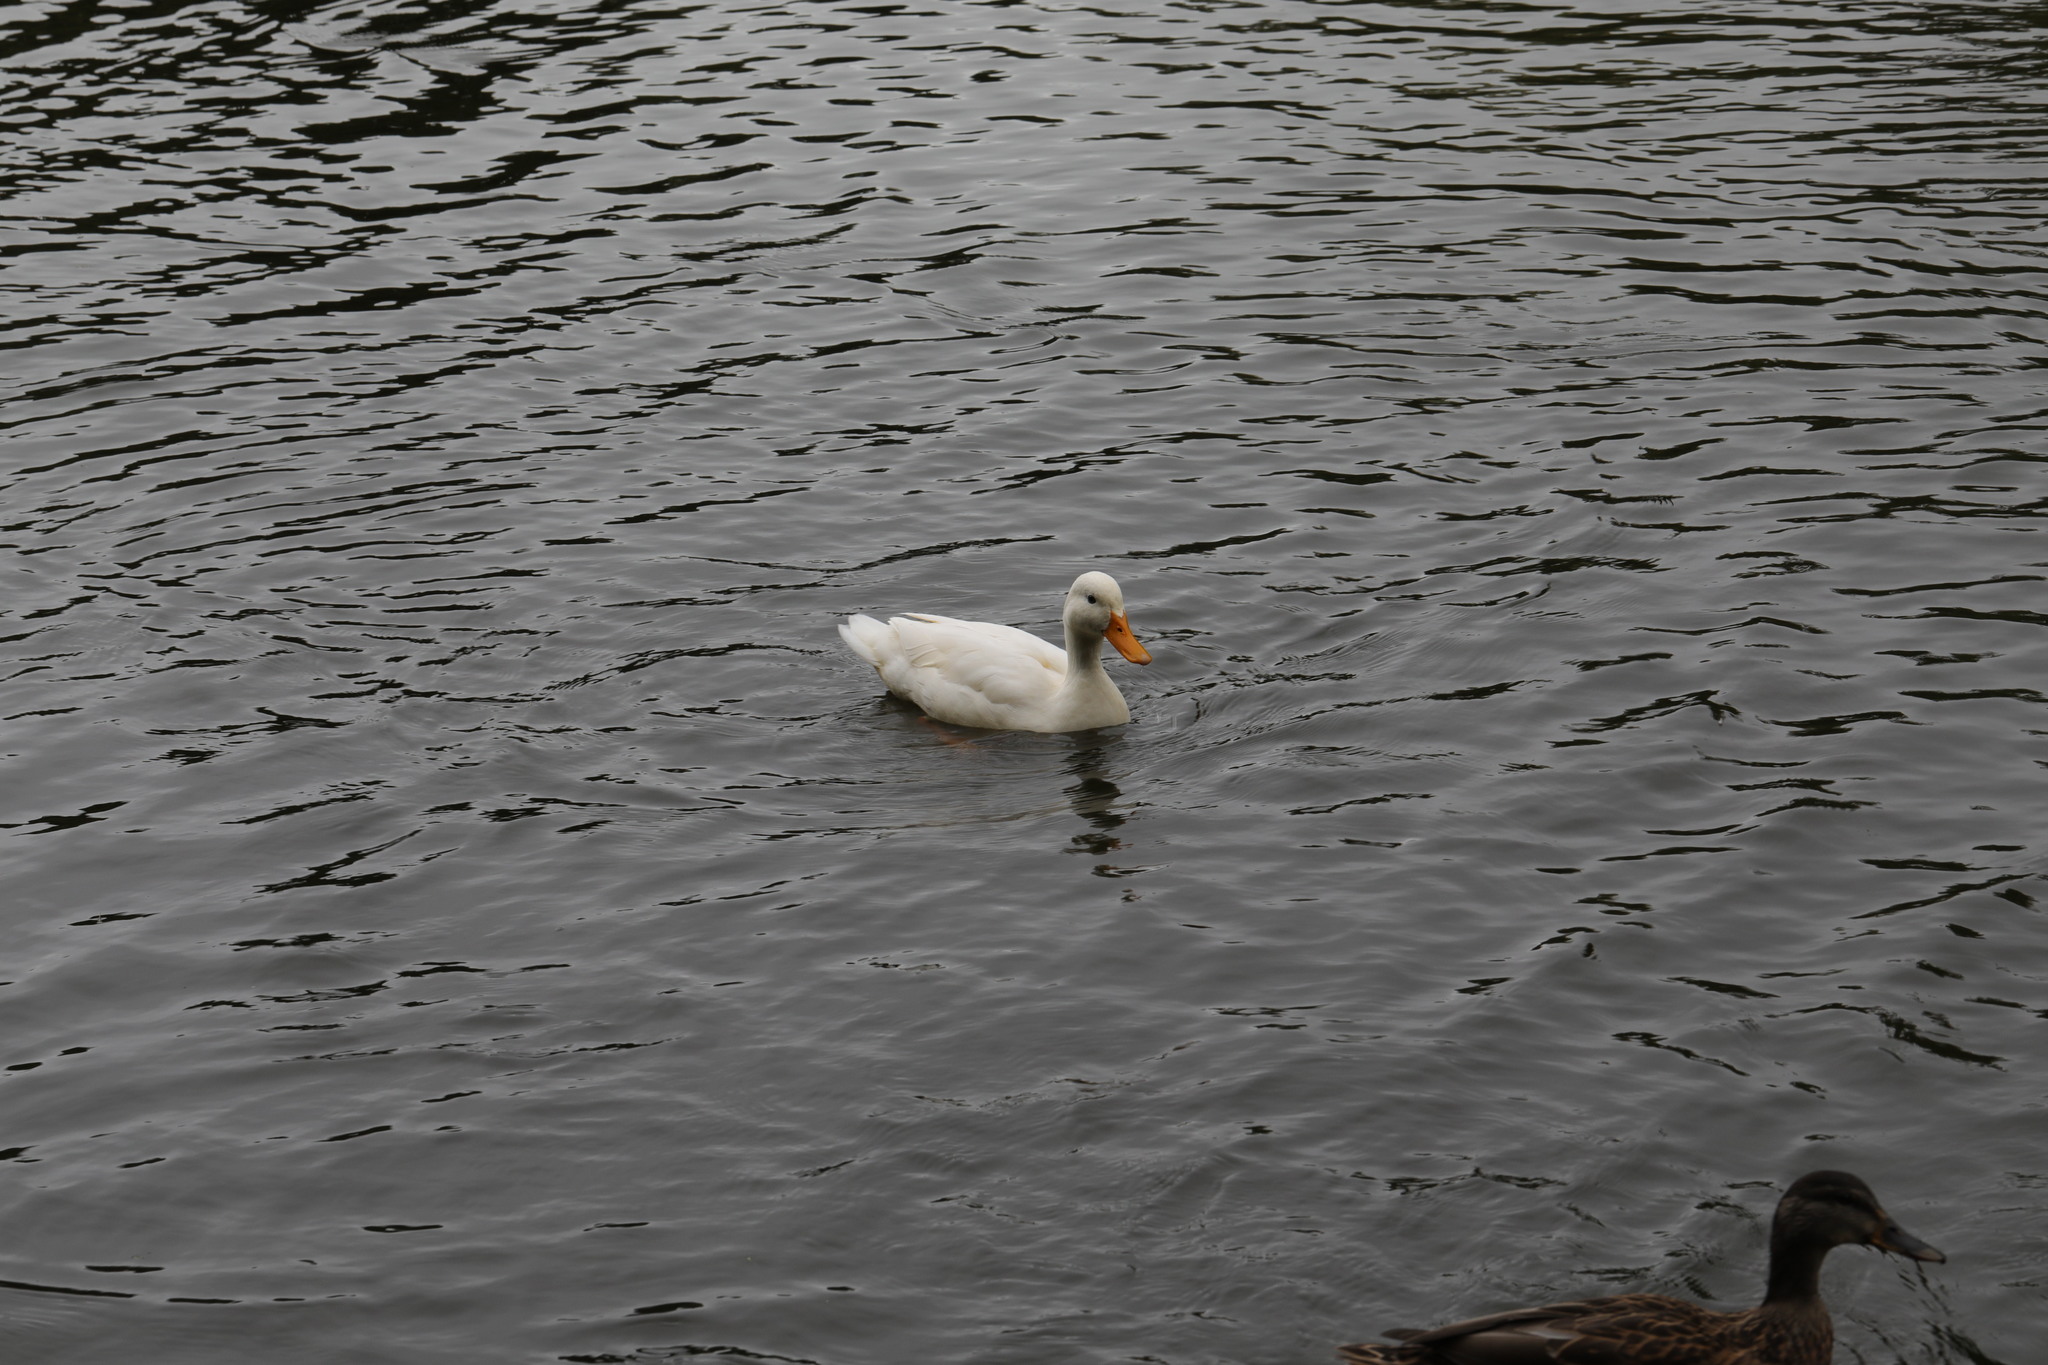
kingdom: Animalia
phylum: Chordata
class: Aves
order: Anseriformes
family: Anatidae
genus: Anas
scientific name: Anas platyrhynchos
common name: Mallard
